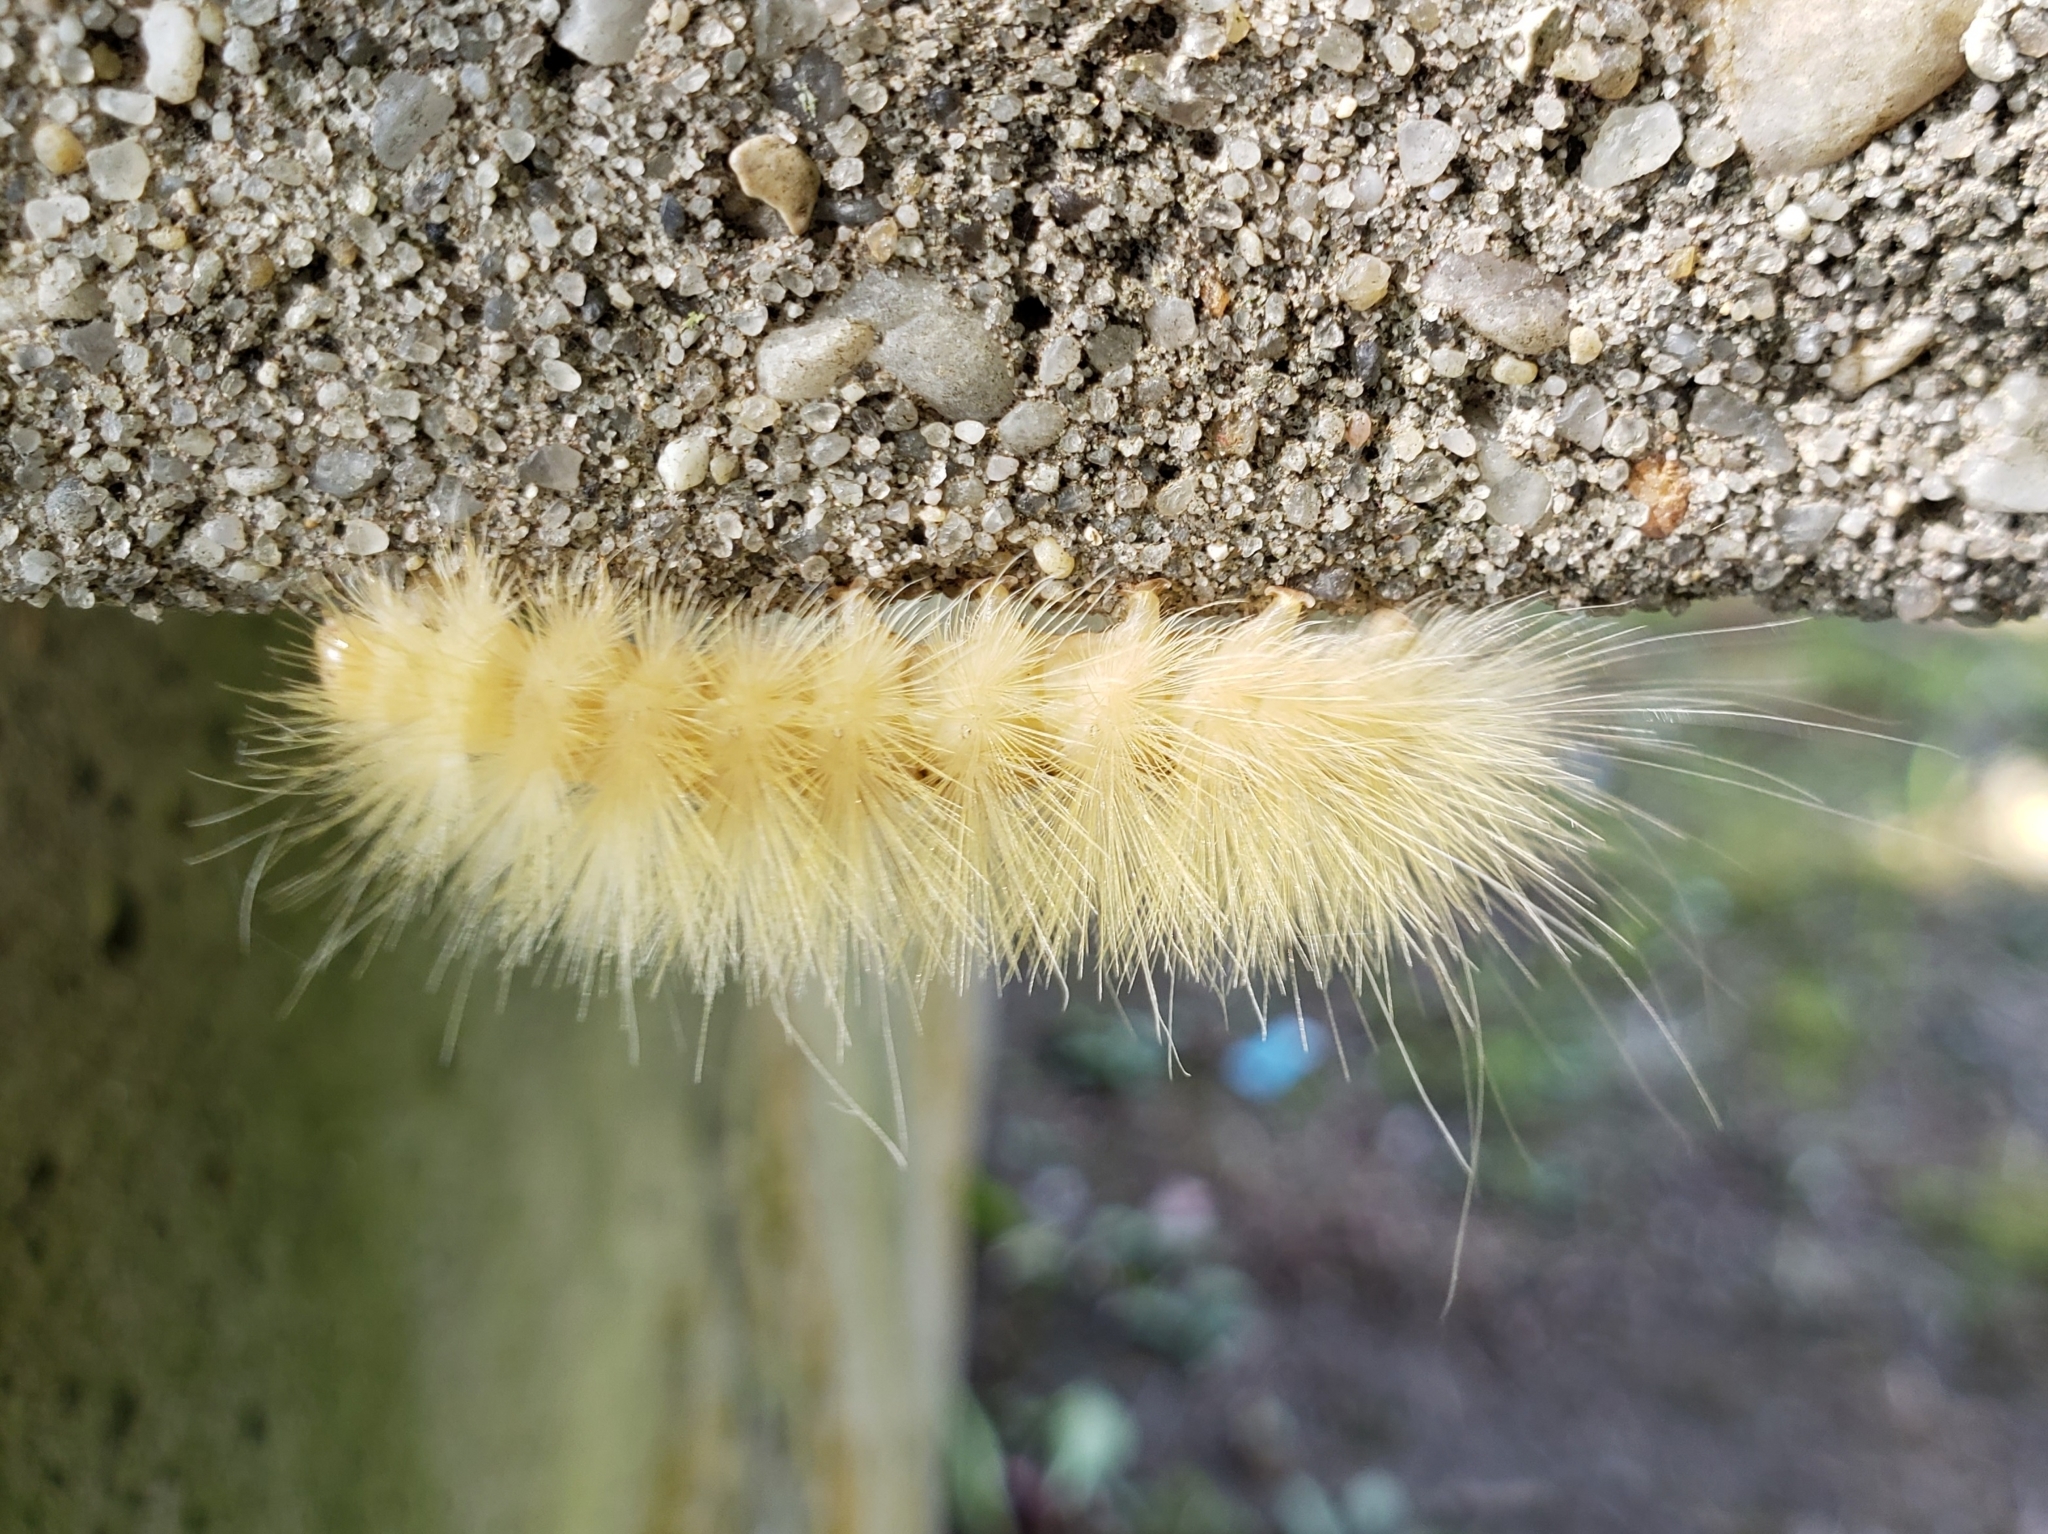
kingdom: Animalia
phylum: Arthropoda
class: Insecta
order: Lepidoptera
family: Erebidae
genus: Spilosoma
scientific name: Spilosoma virginica
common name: Virginia tiger moth
